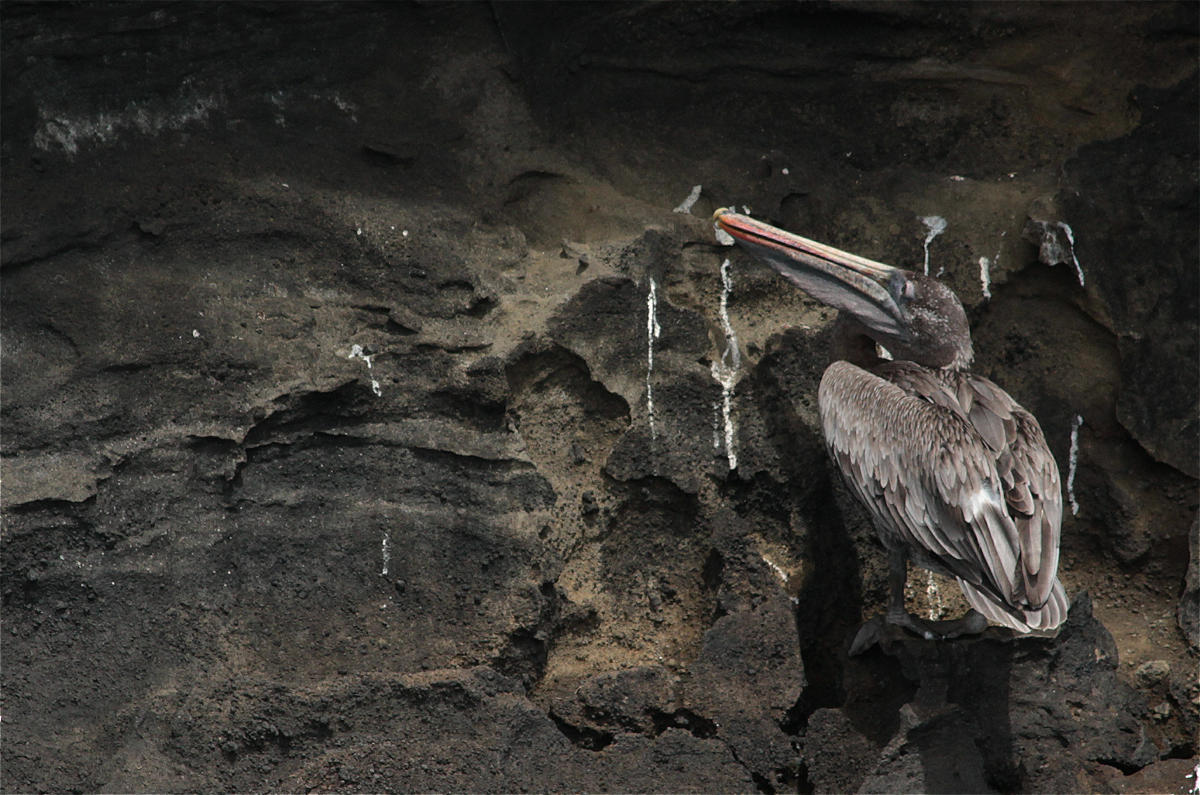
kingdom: Animalia
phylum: Chordata
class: Aves
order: Pelecaniformes
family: Pelecanidae
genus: Pelecanus
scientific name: Pelecanus occidentalis
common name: Brown pelican
